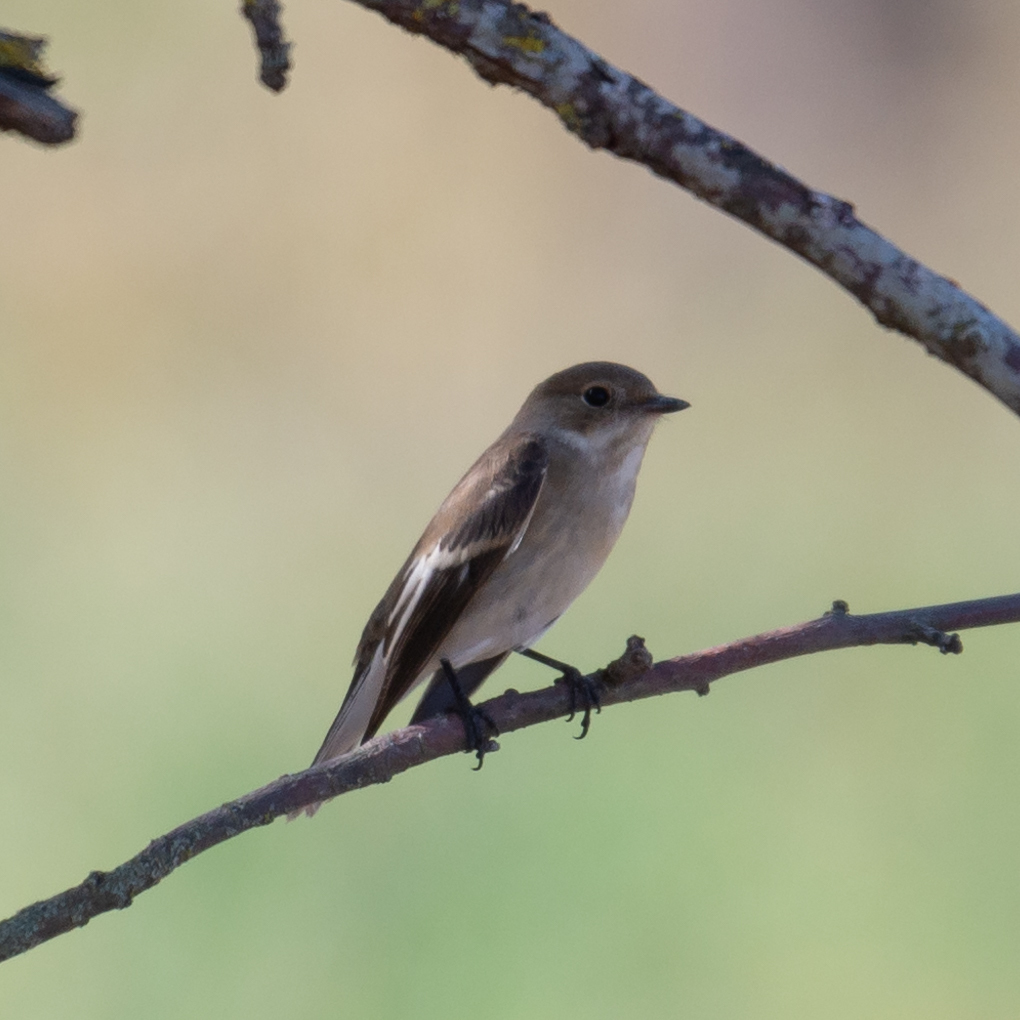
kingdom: Animalia
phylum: Chordata
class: Aves
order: Passeriformes
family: Muscicapidae
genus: Ficedula
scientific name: Ficedula hypoleuca
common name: European pied flycatcher
